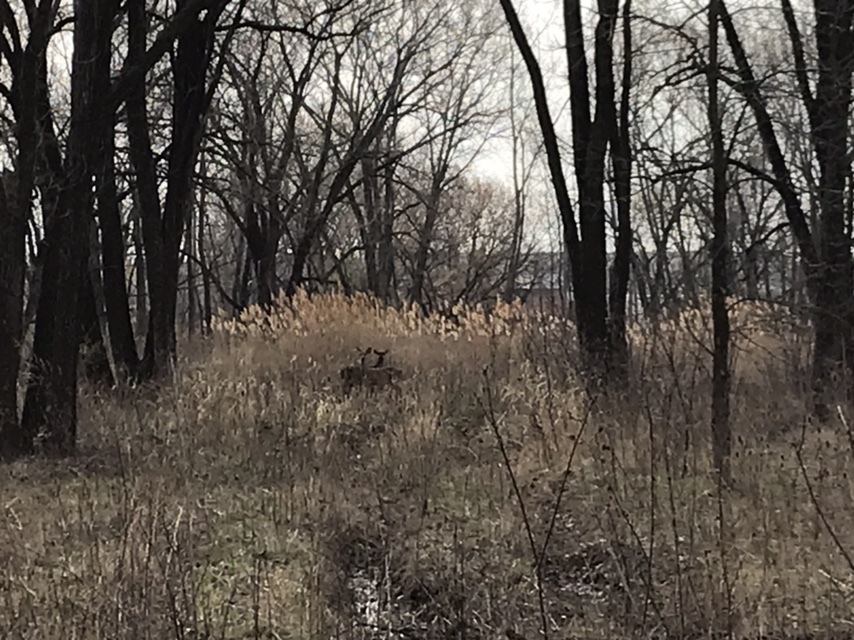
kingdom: Animalia
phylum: Chordata
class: Mammalia
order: Artiodactyla
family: Cervidae
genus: Odocoileus
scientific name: Odocoileus virginianus
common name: White-tailed deer
